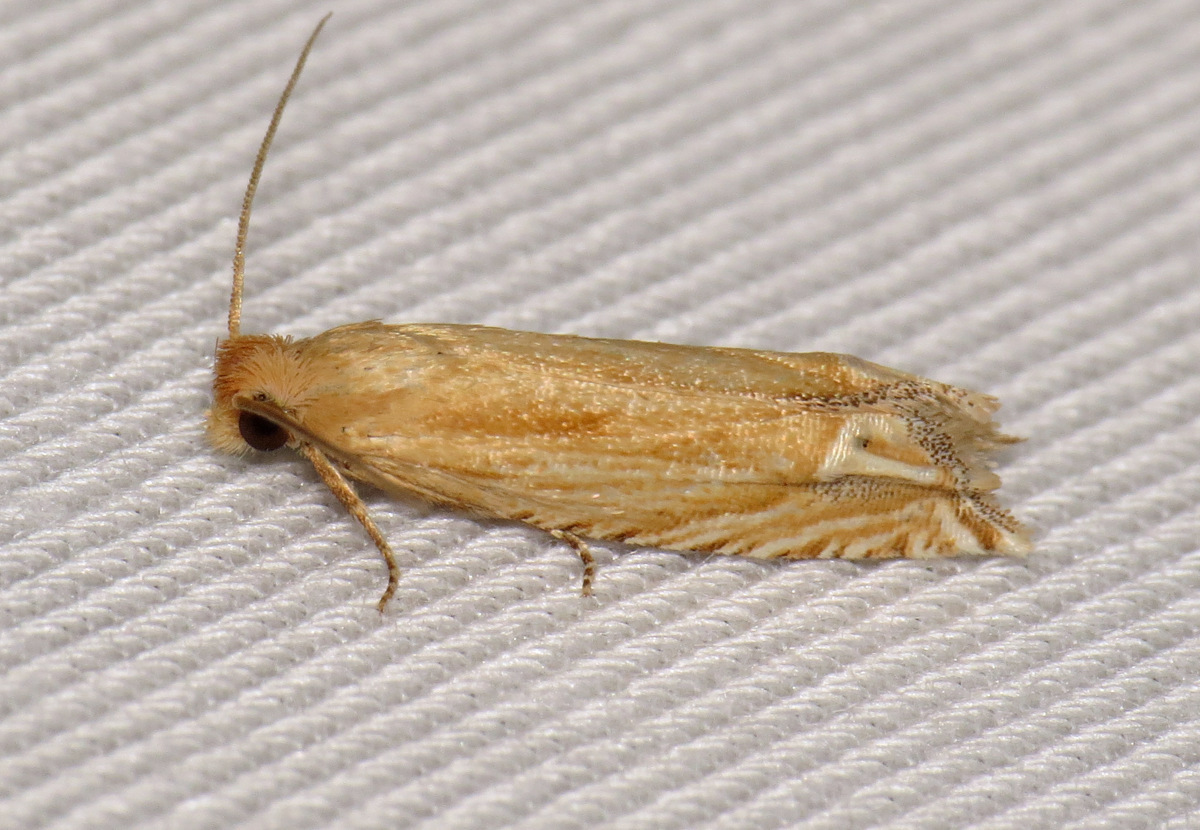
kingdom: Animalia
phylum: Arthropoda
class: Insecta
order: Lepidoptera
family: Tortricidae
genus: Pelochrista
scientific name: Pelochrista cataclystiana
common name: Goldenrod pelochrista moth
